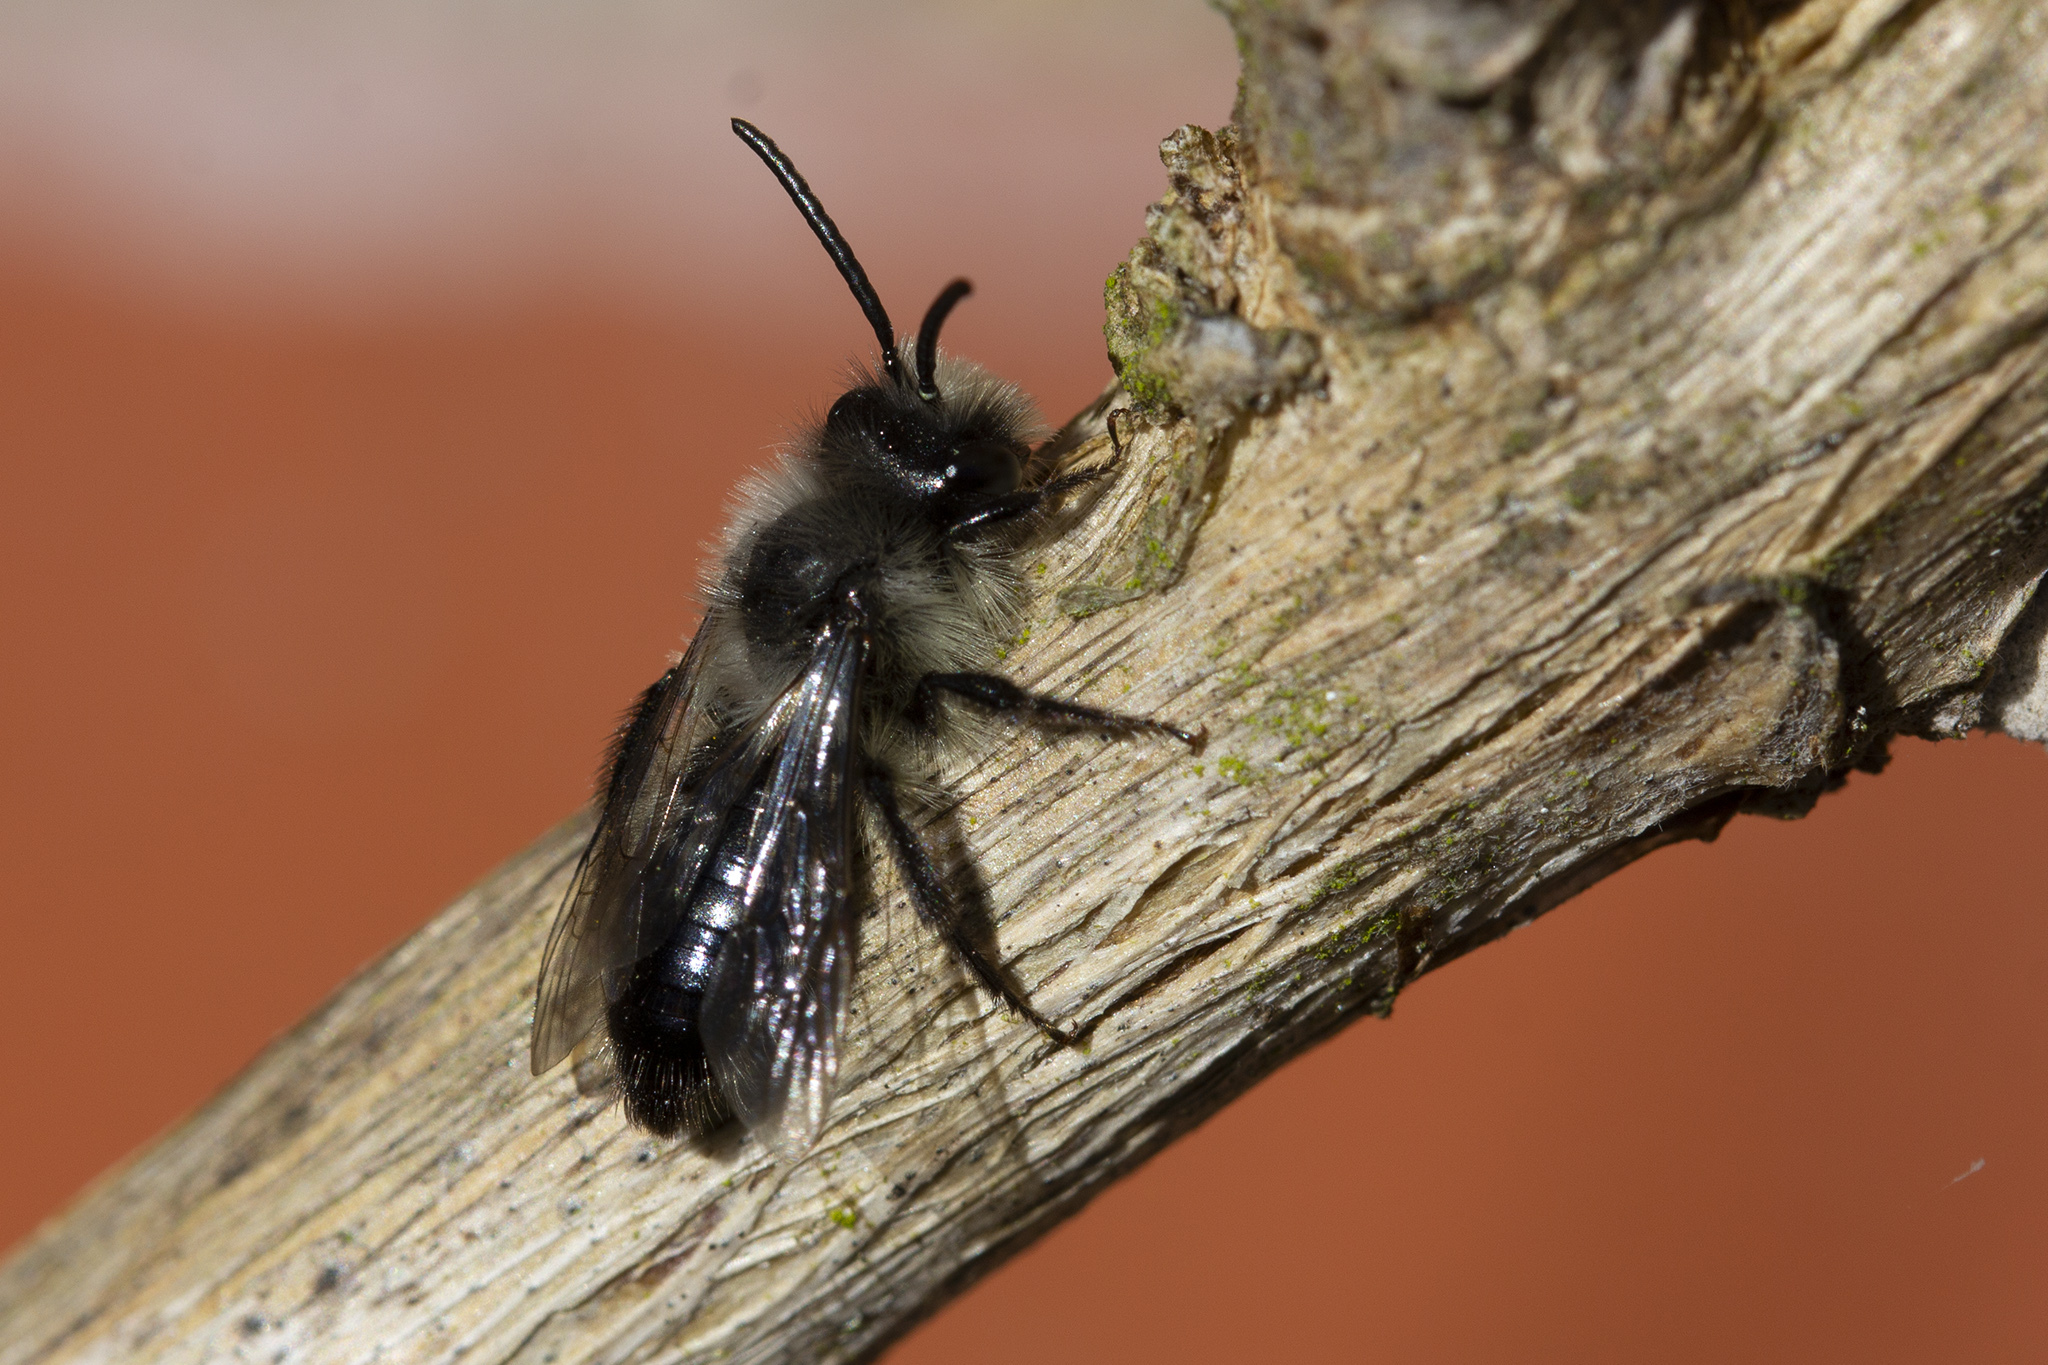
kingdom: Animalia
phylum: Arthropoda
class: Insecta
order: Hymenoptera
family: Andrenidae
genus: Andrena
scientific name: Andrena cineraria
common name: Ashy mining bee
